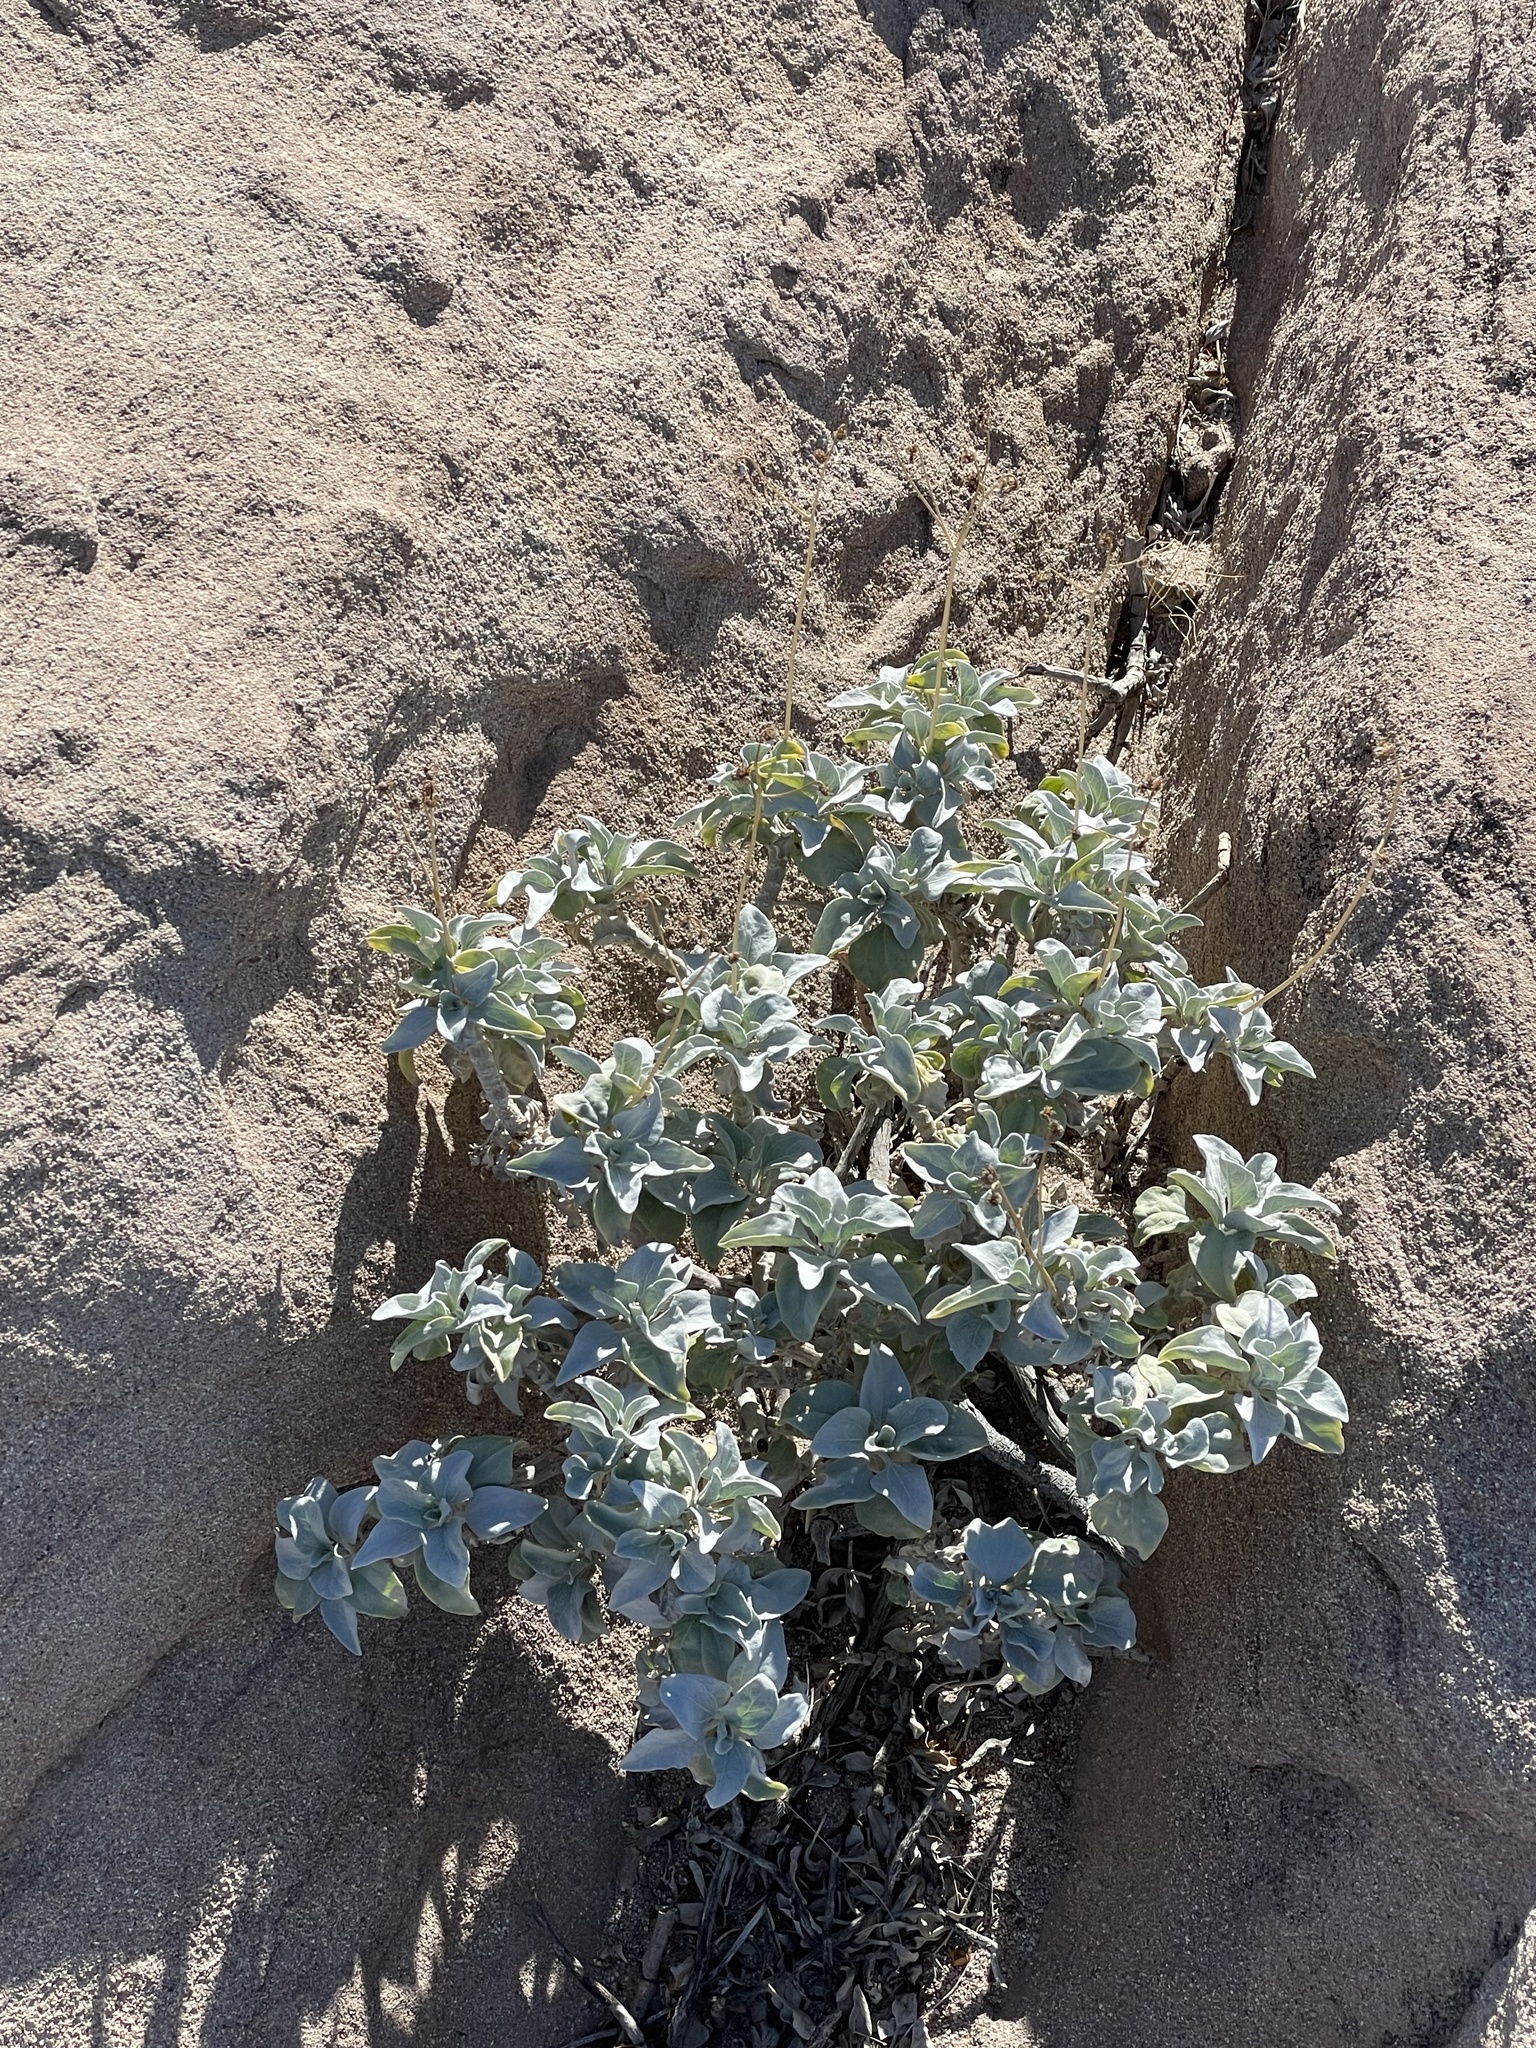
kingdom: Plantae
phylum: Tracheophyta
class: Magnoliopsida
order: Asterales
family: Asteraceae
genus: Encelia
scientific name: Encelia farinosa
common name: Brittlebush
